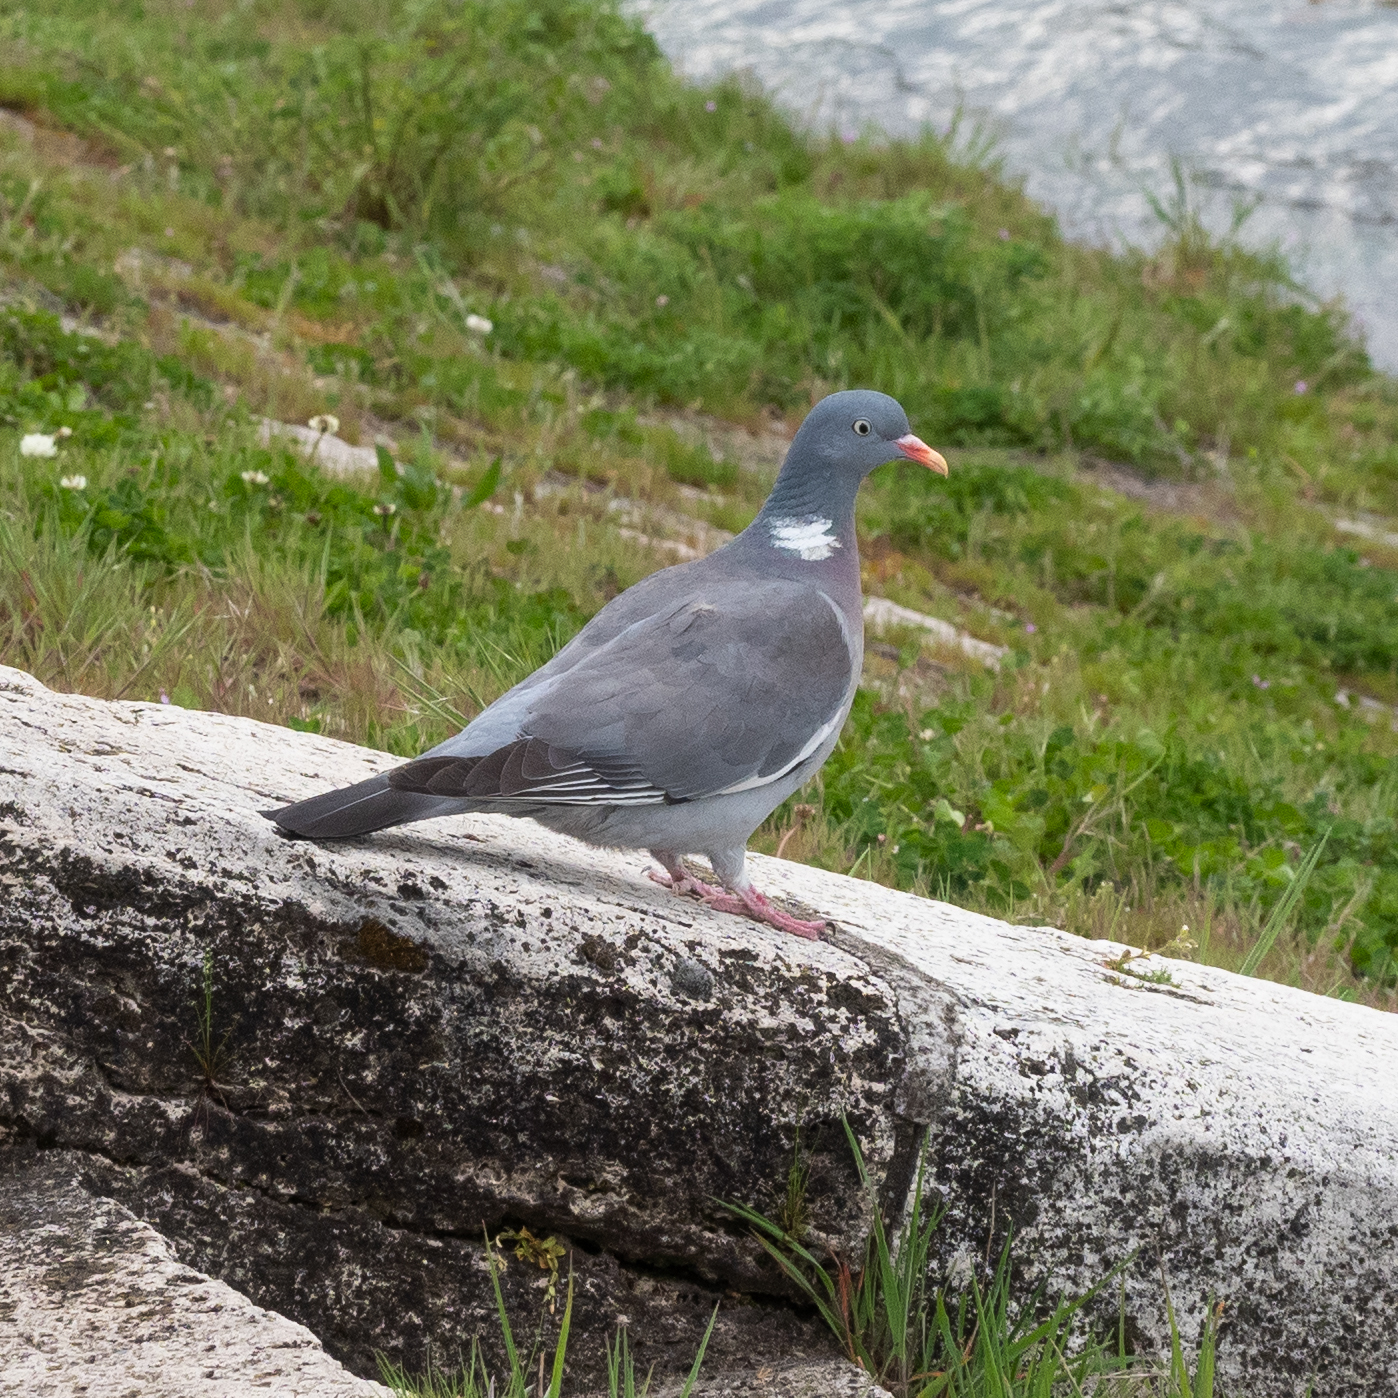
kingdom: Animalia
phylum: Chordata
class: Aves
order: Columbiformes
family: Columbidae
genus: Columba
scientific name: Columba palumbus
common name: Common wood pigeon
